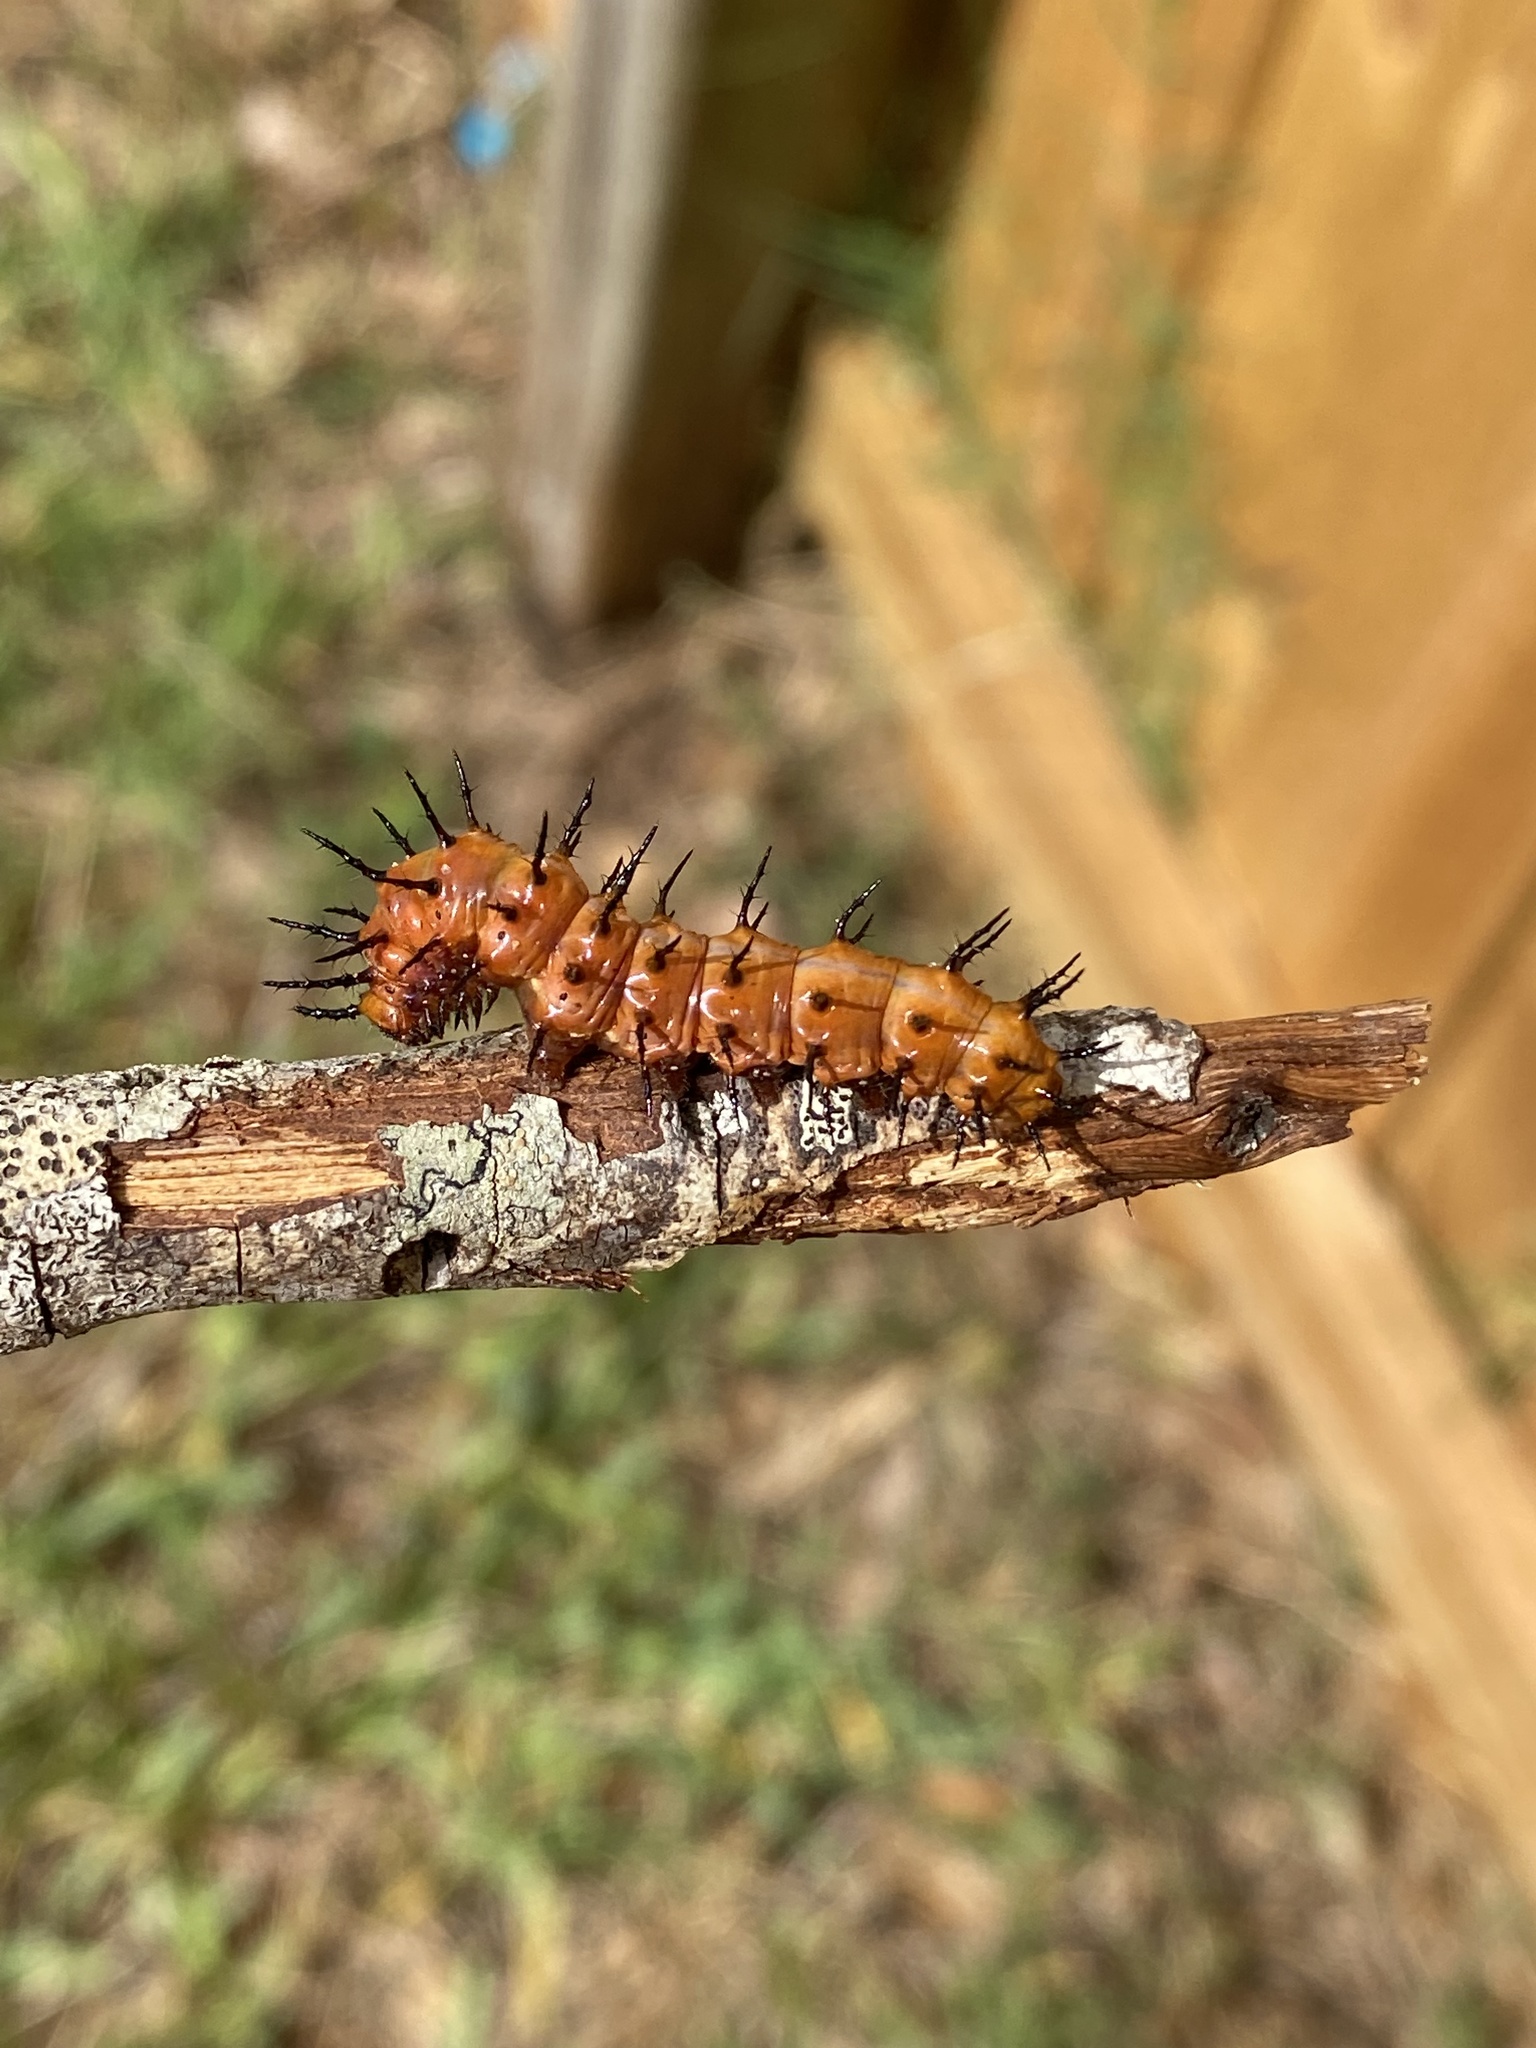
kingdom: Animalia
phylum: Arthropoda
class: Insecta
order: Lepidoptera
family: Nymphalidae
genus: Dione
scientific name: Dione vanillae
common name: Gulf fritillary
